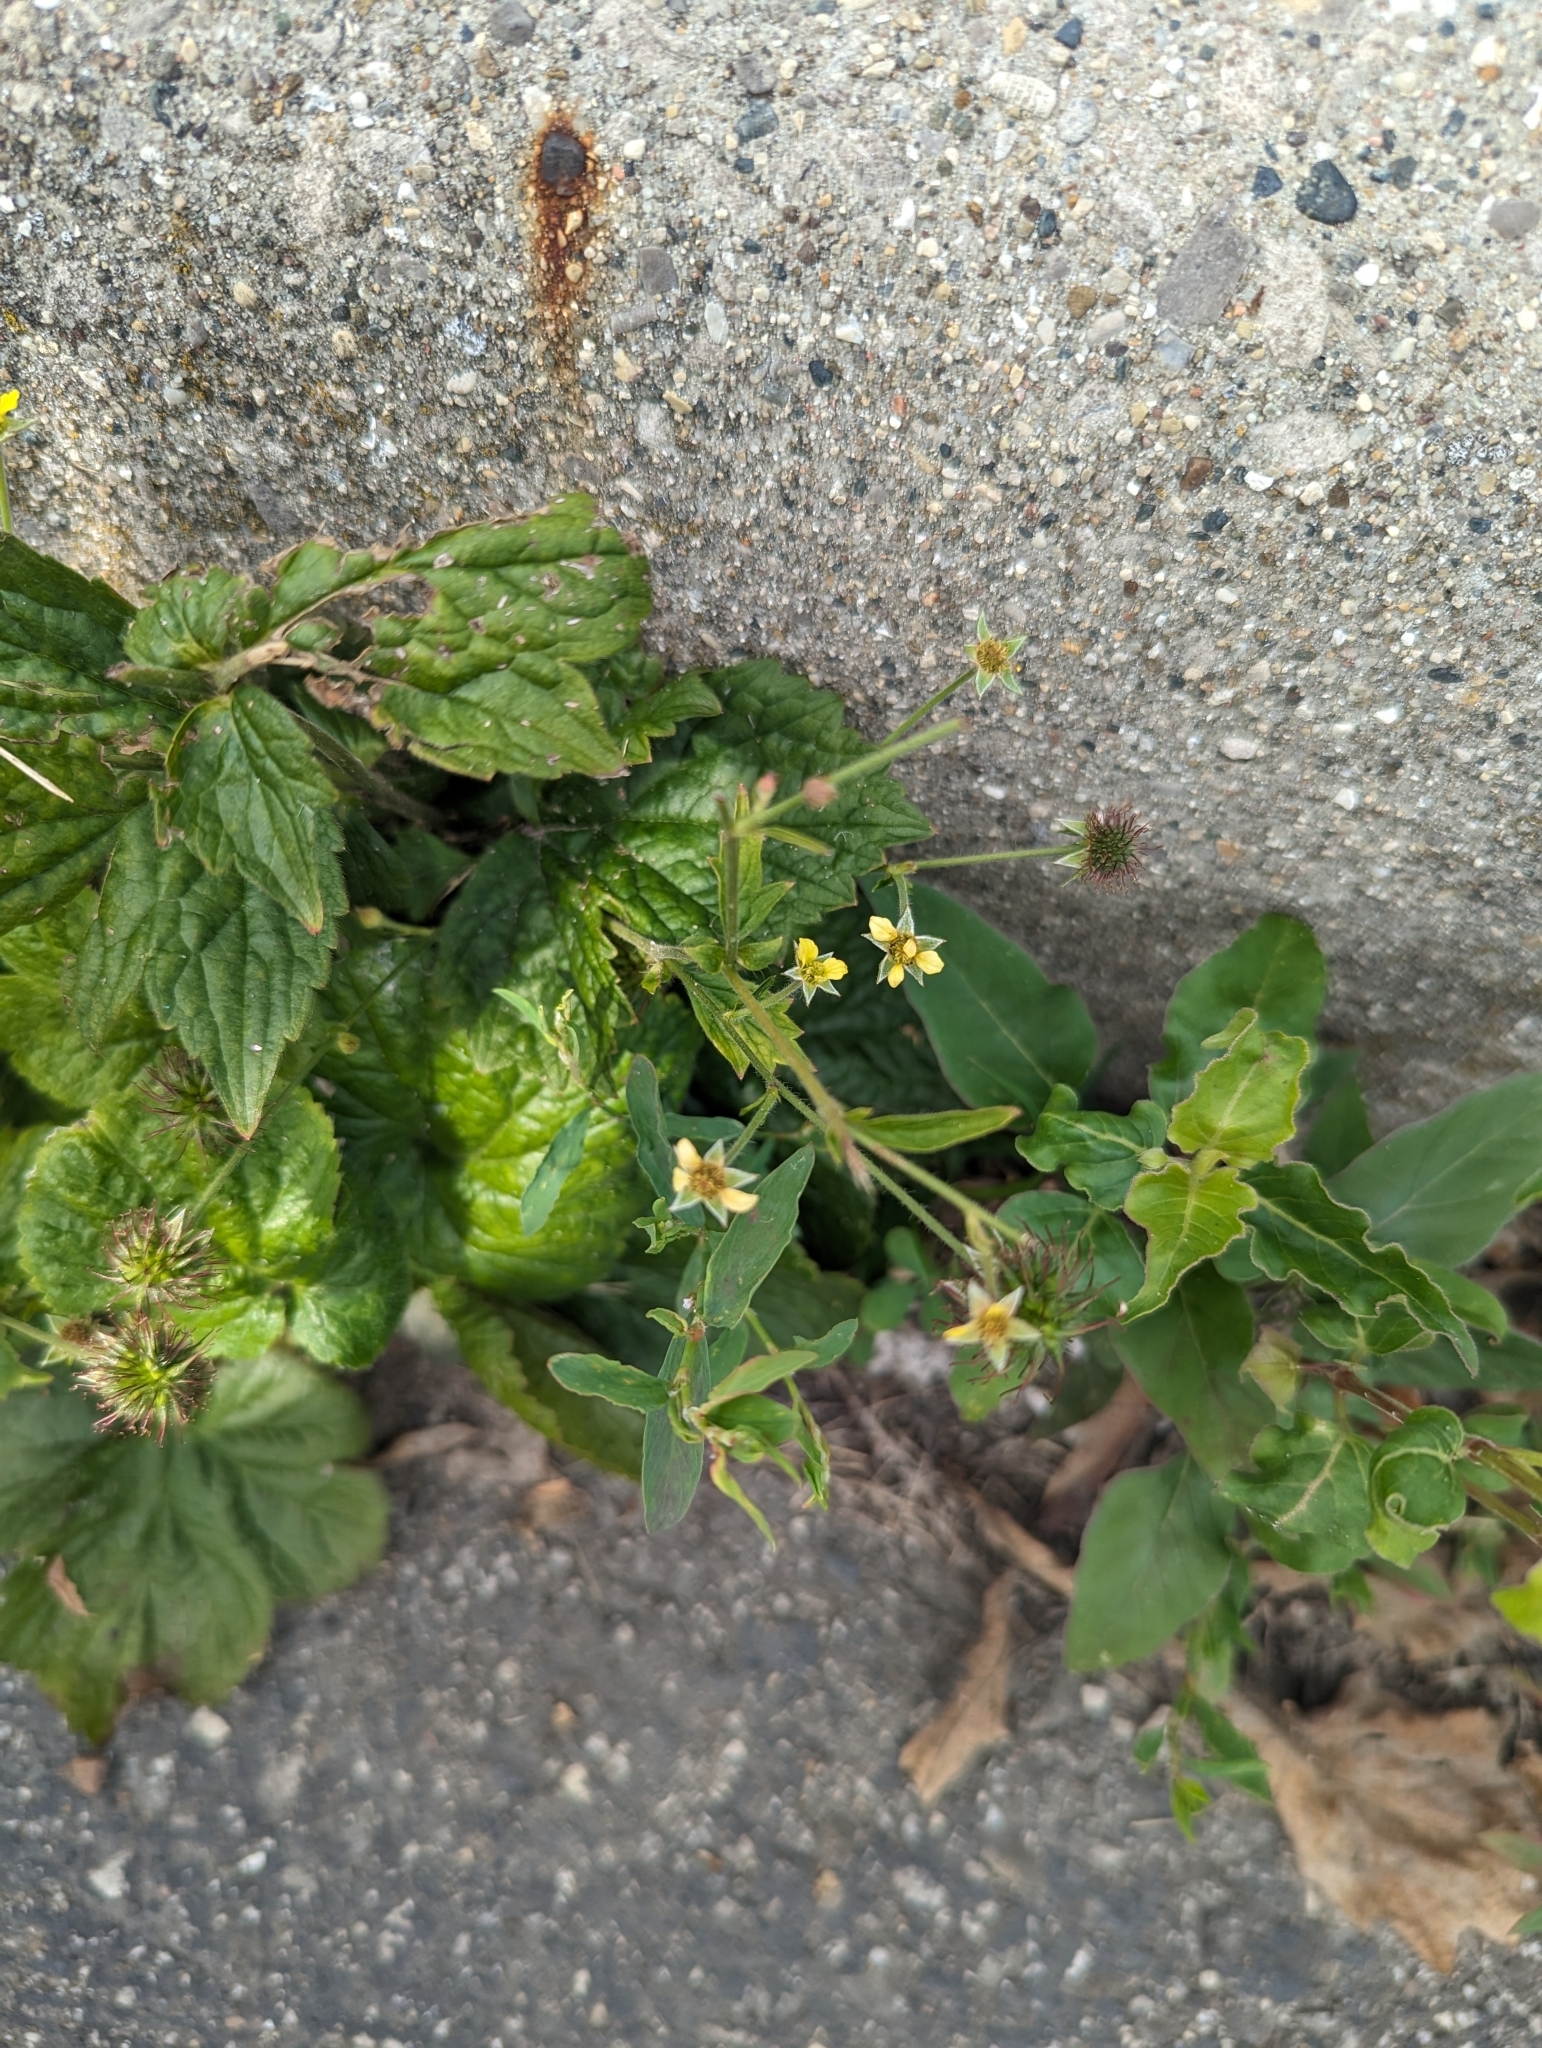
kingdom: Plantae
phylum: Tracheophyta
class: Magnoliopsida
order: Rosales
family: Rosaceae
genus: Geum
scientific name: Geum urbanum
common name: Wood avens
